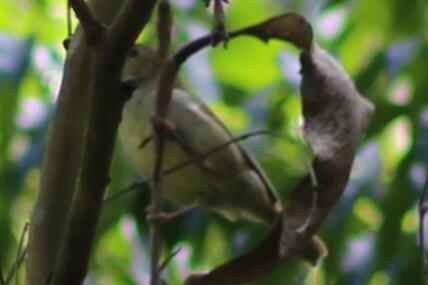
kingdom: Animalia
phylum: Chordata
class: Aves
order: Passeriformes
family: Acanthizidae
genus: Sericornis
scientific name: Sericornis magnirostra
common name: Large-billed scrubwren
